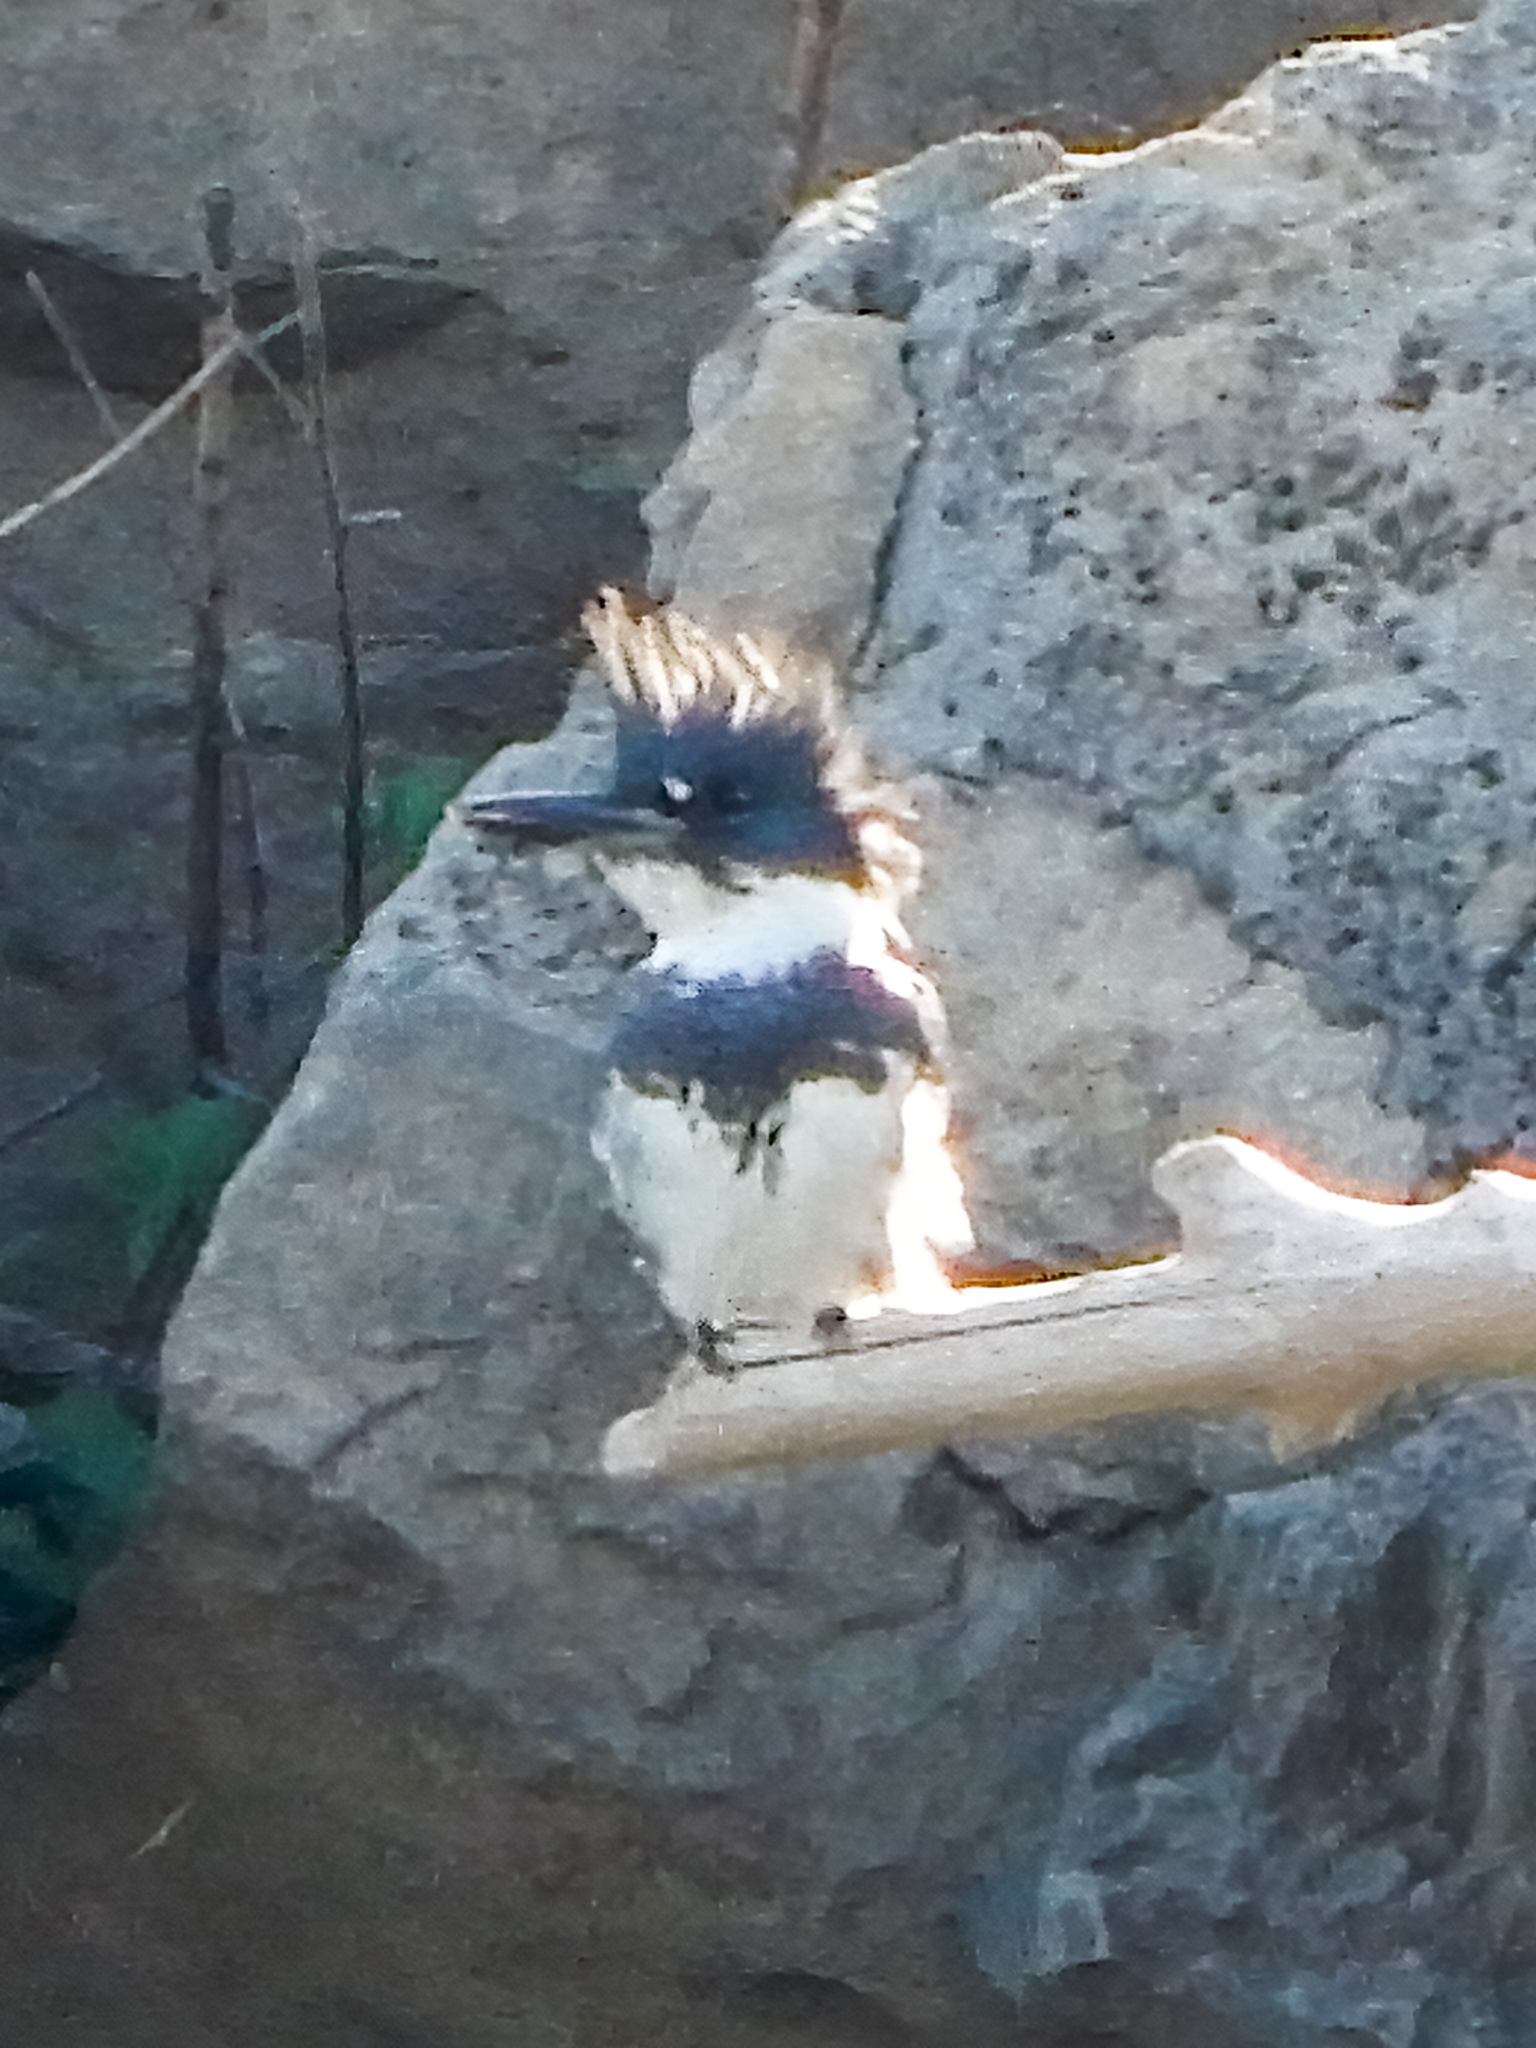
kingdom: Animalia
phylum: Chordata
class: Aves
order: Coraciiformes
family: Alcedinidae
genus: Megaceryle
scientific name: Megaceryle alcyon
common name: Belted kingfisher
